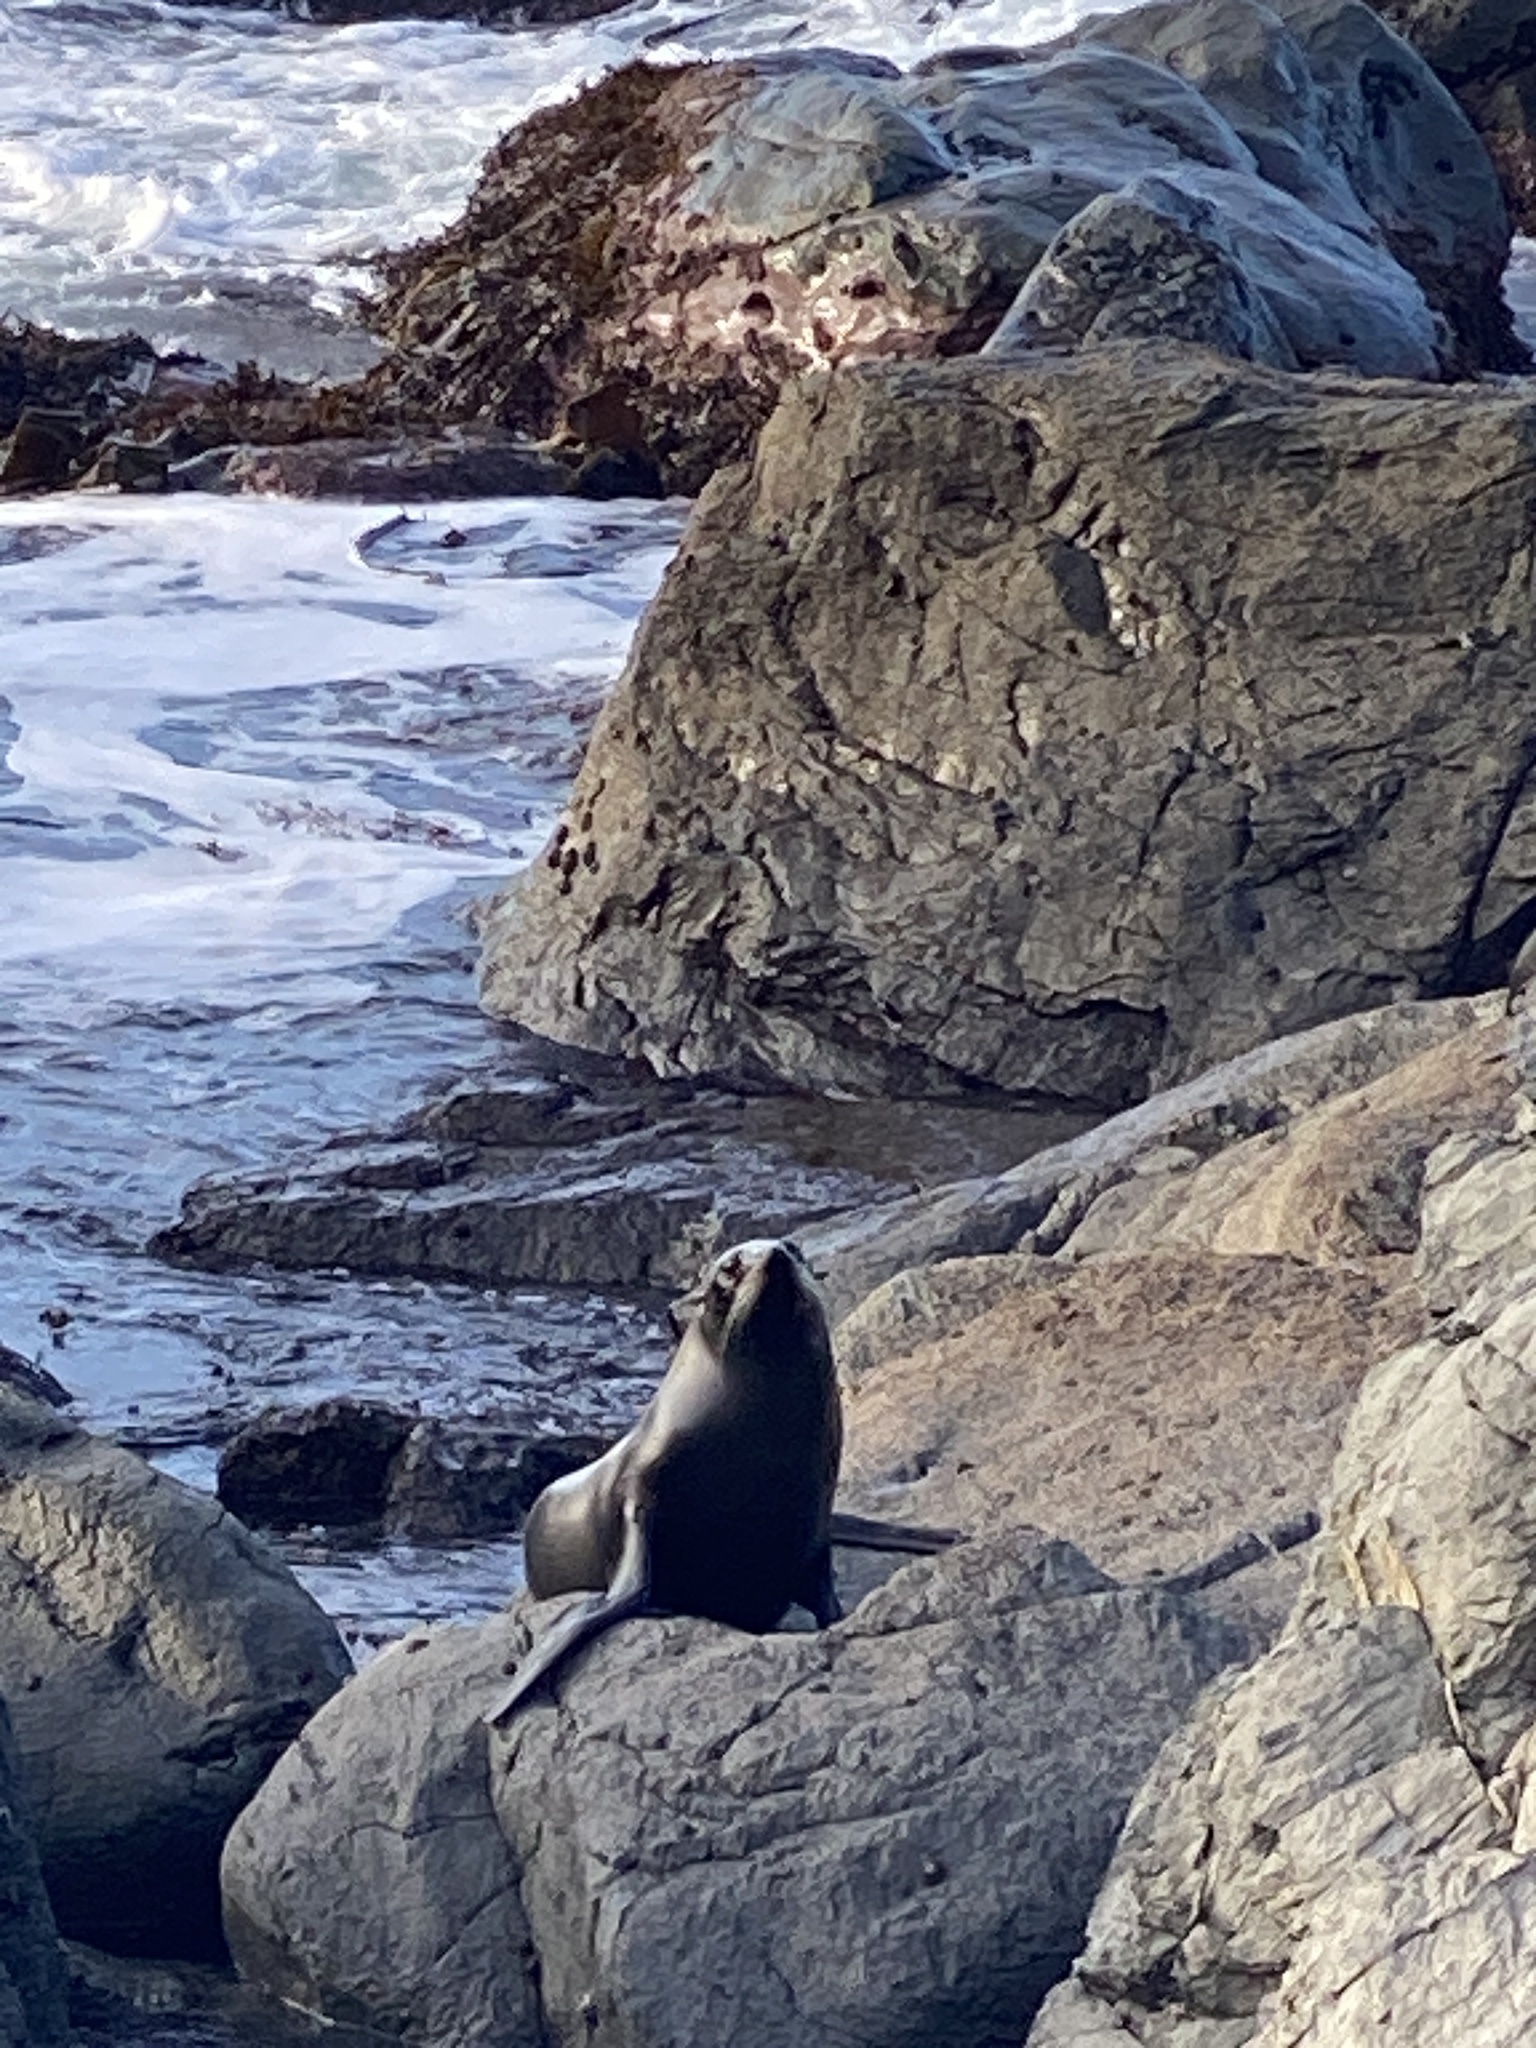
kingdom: Animalia
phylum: Chordata
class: Mammalia
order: Carnivora
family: Otariidae
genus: Arctocephalus
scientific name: Arctocephalus forsteri
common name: New zealand fur seal
